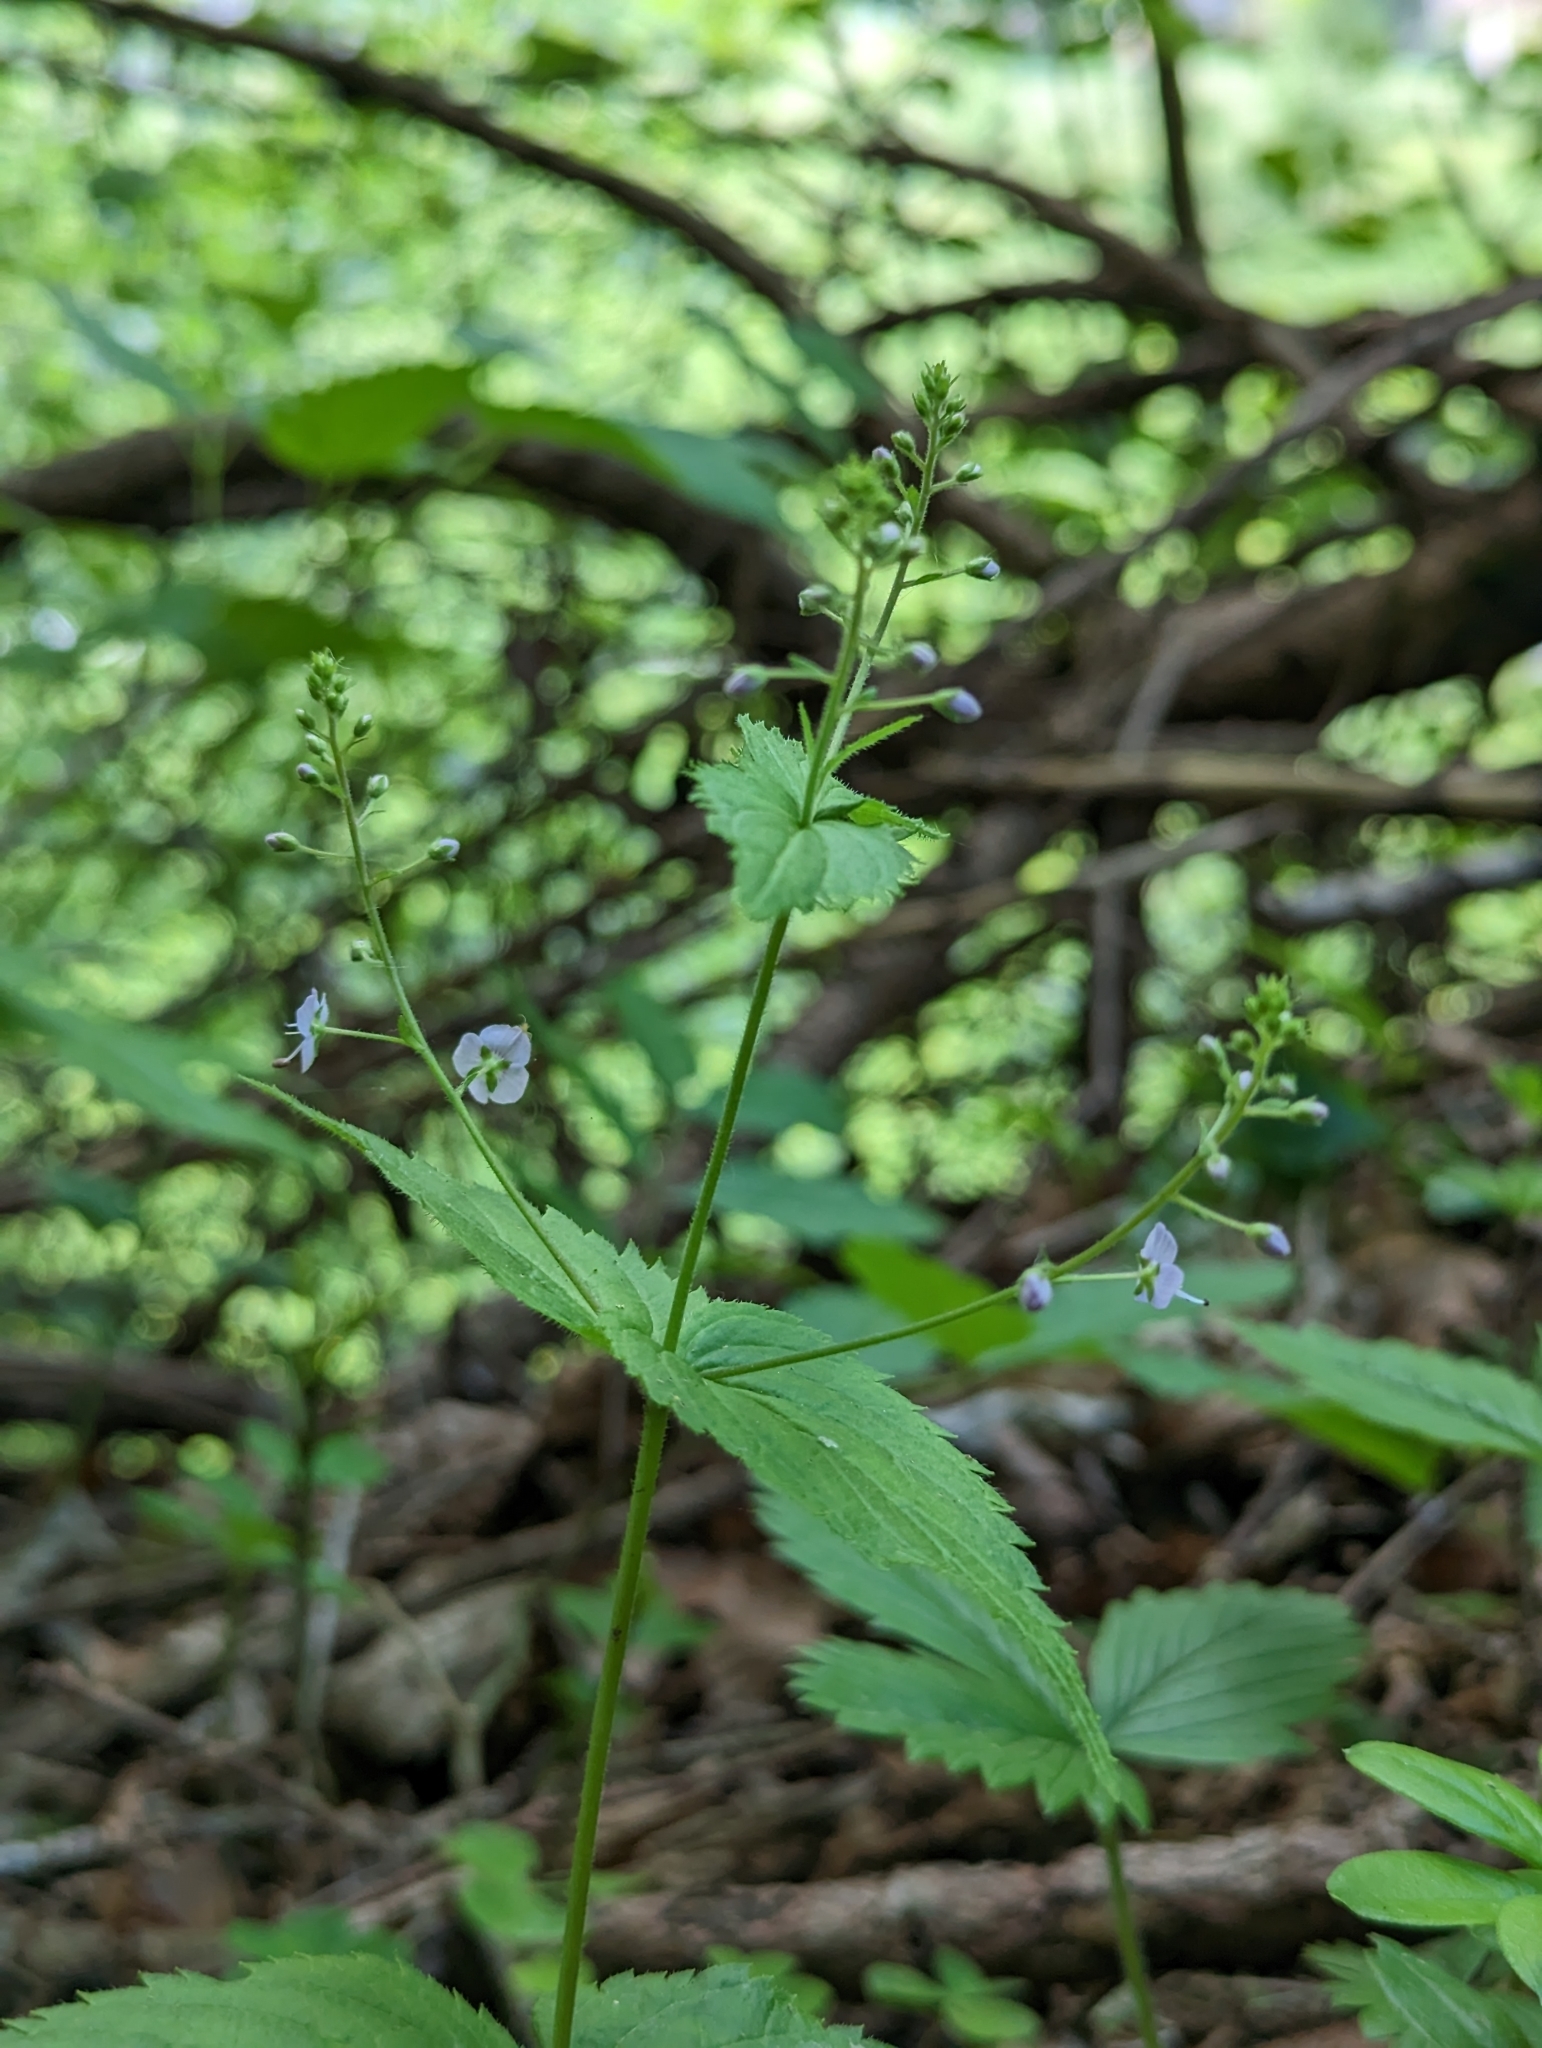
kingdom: Plantae
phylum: Tracheophyta
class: Magnoliopsida
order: Lamiales
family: Plantaginaceae
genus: Veronica
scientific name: Veronica urticifolia
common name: Nettle-leaf speedwell
